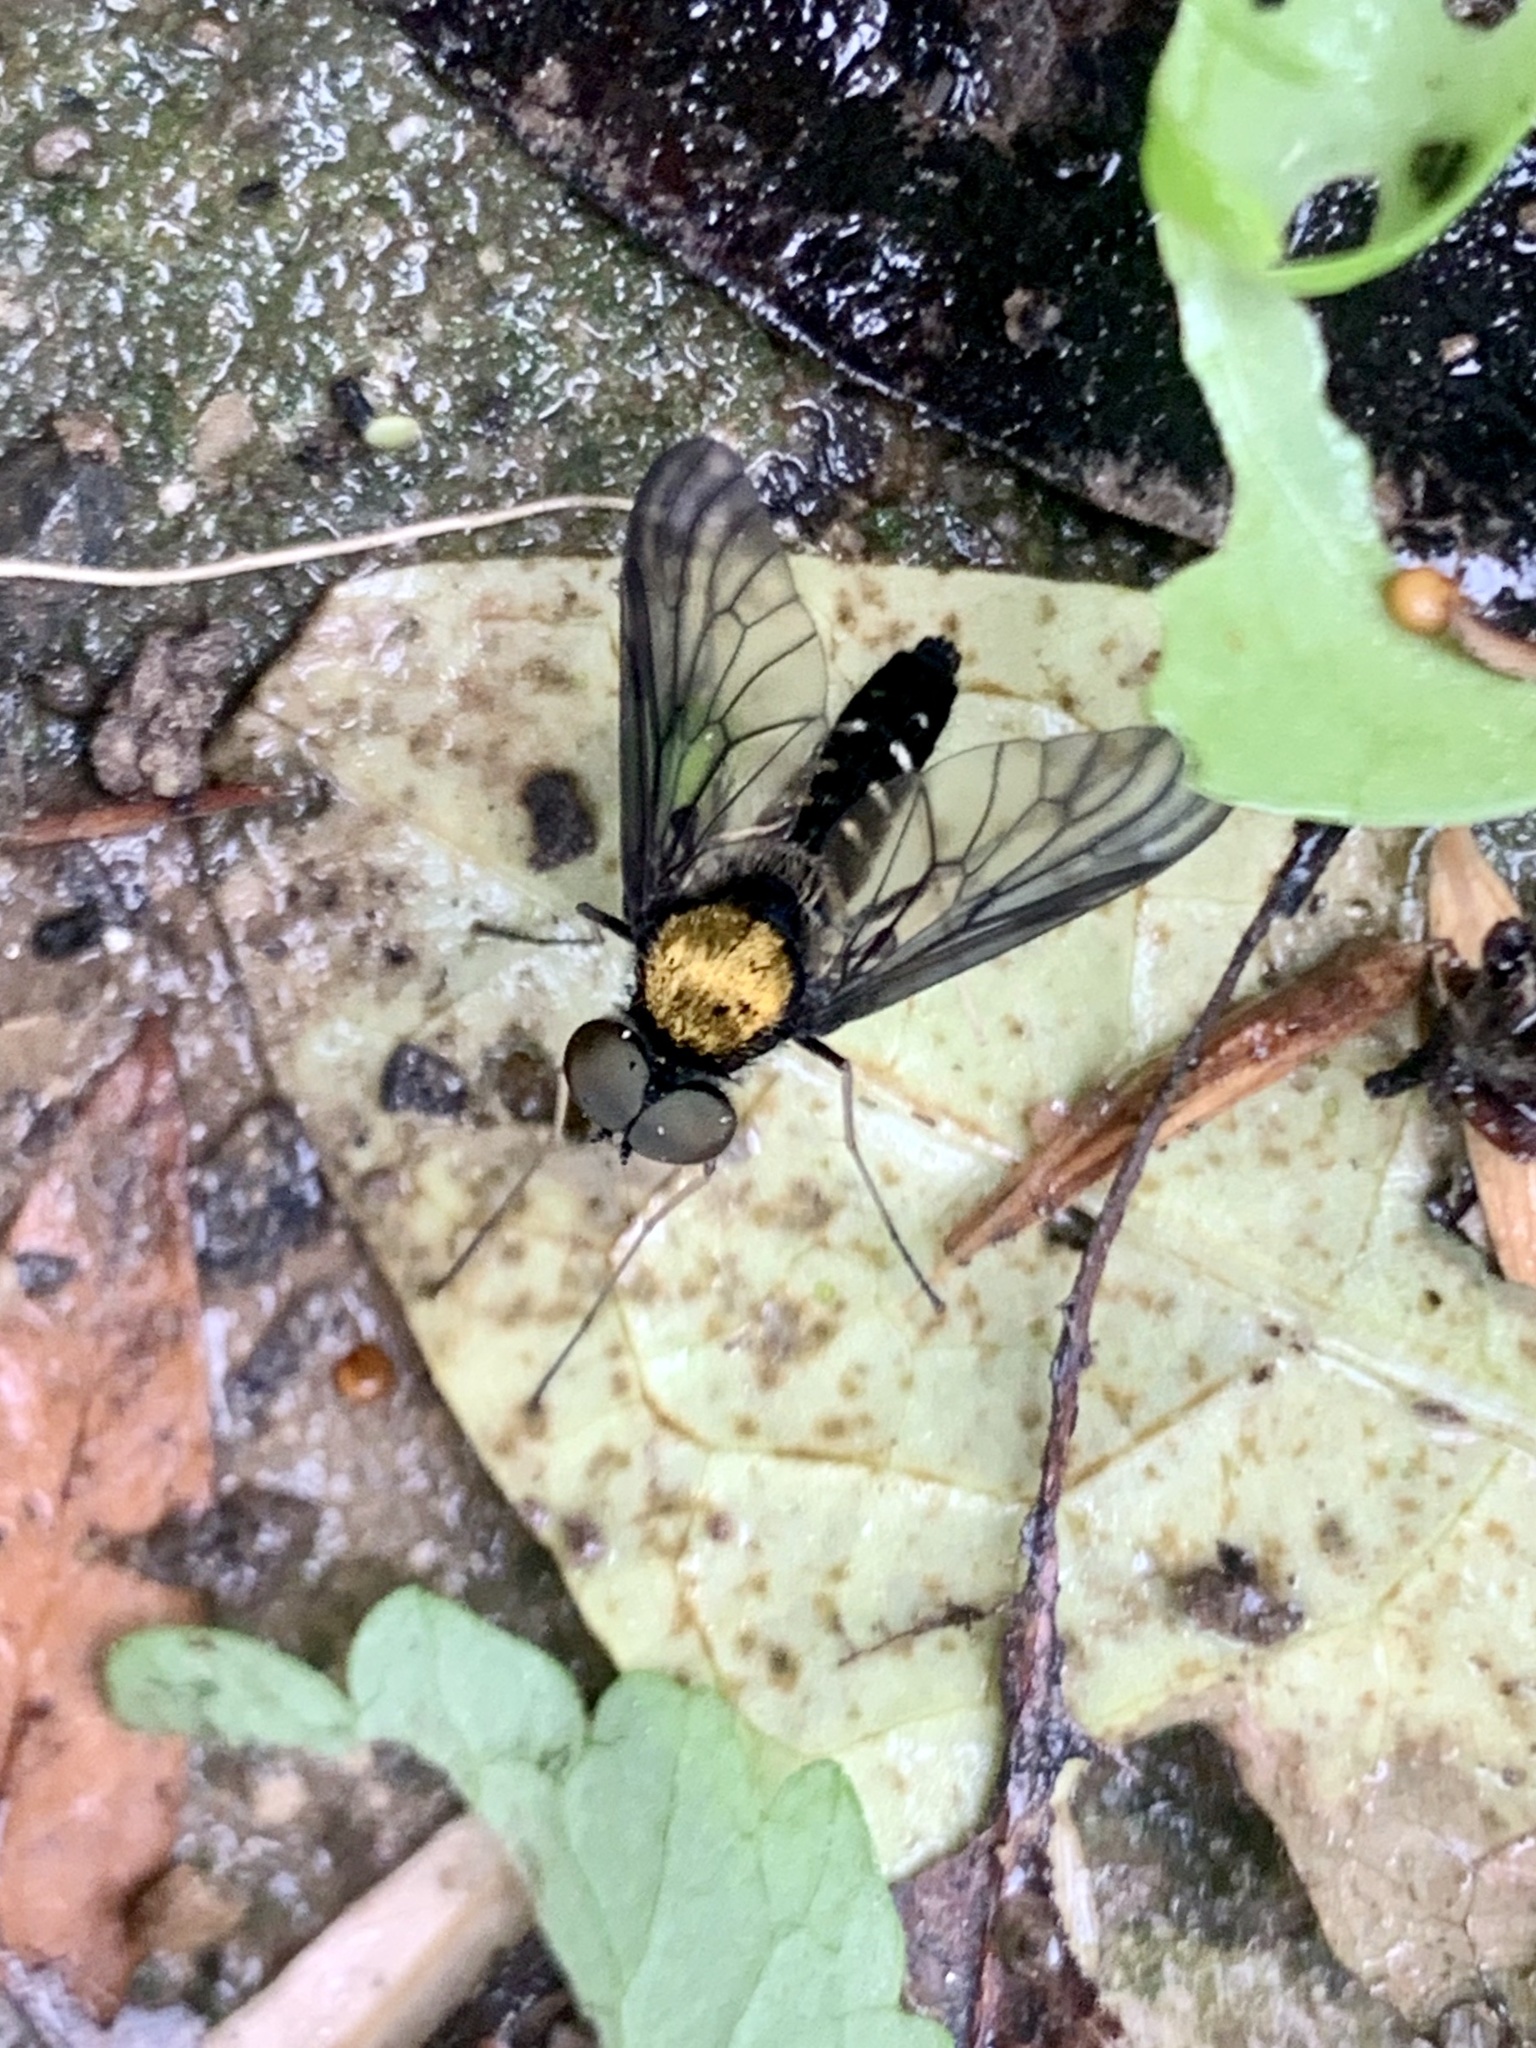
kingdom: Animalia
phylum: Arthropoda
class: Insecta
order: Diptera
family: Rhagionidae
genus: Chrysopilus
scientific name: Chrysopilus thoracicus
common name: Golden-backed snipe fly
